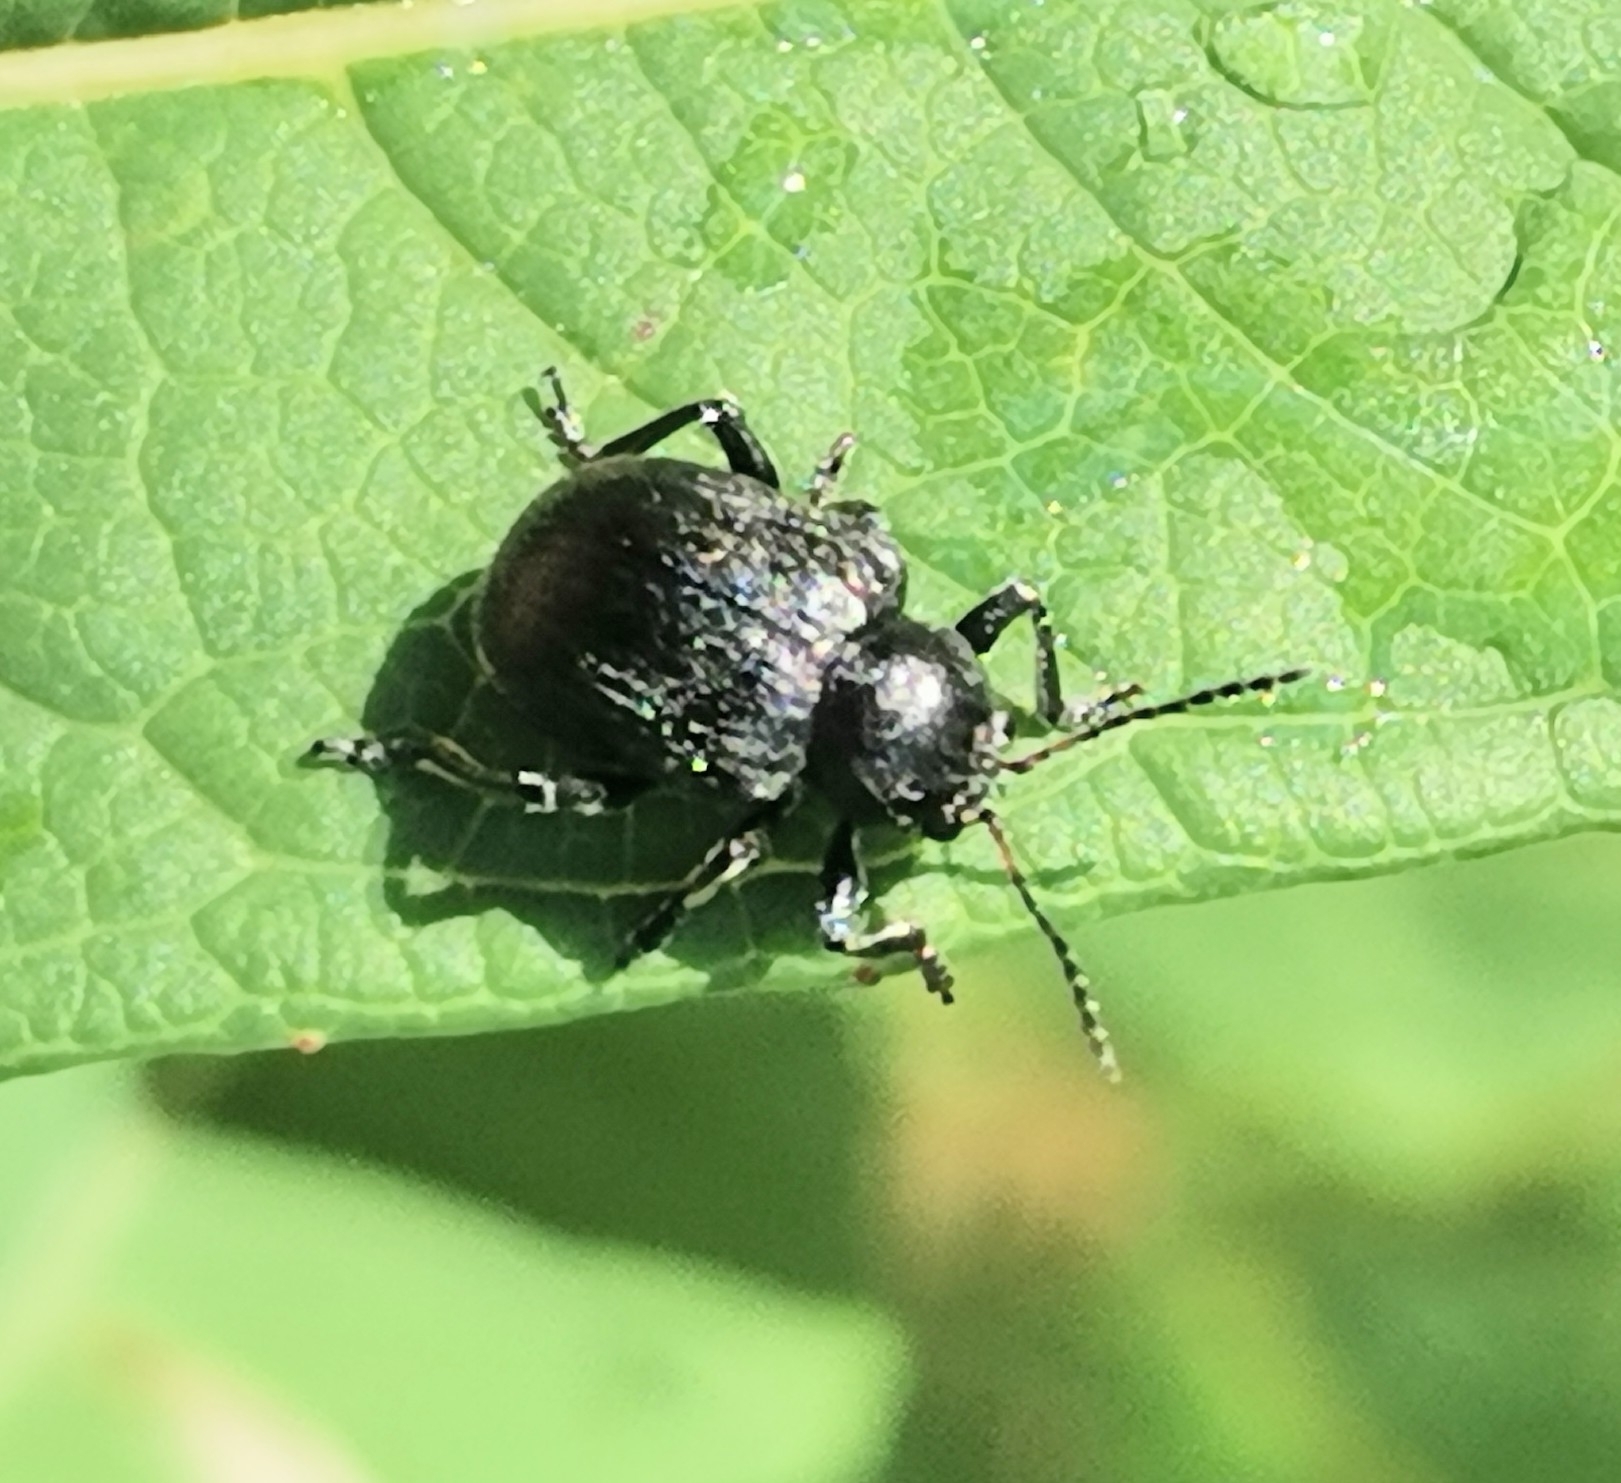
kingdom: Animalia
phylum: Arthropoda
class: Insecta
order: Coleoptera
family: Chrysomelidae
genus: Bromius
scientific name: Bromius obscurus
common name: Western grape rootworm
